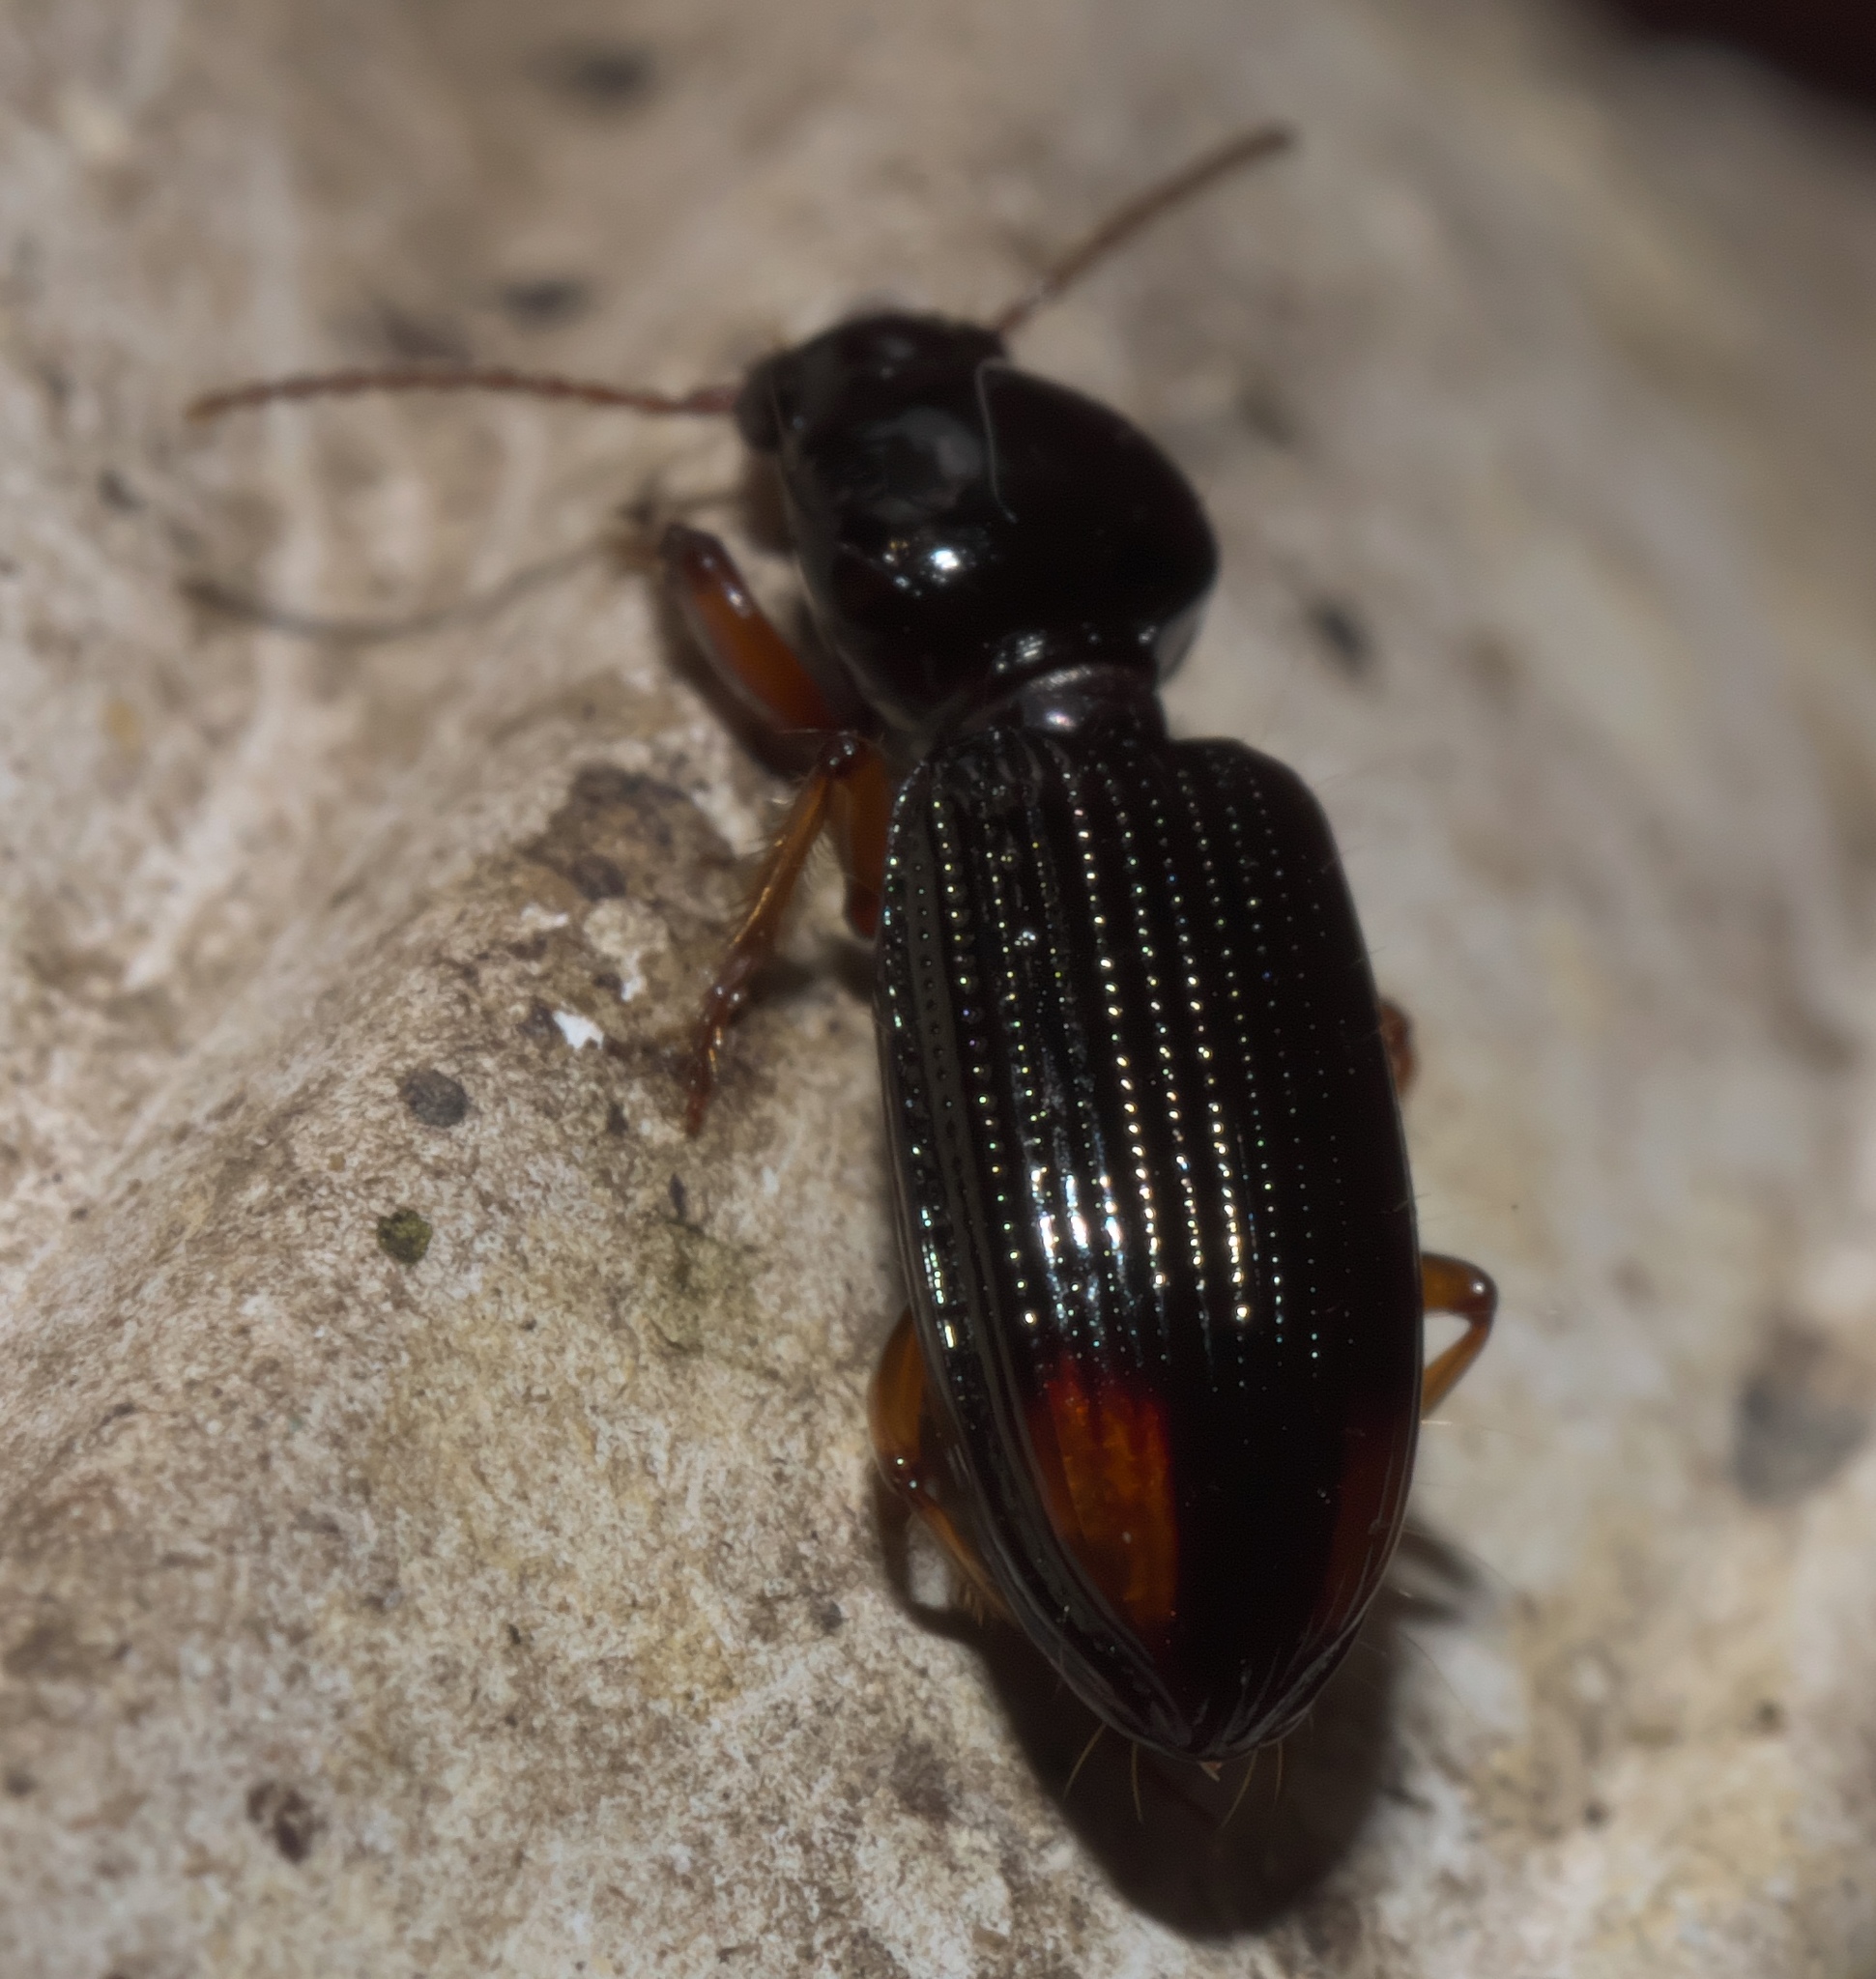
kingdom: Animalia
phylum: Arthropoda
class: Insecta
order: Coleoptera
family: Carabidae
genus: Aspidoglossa
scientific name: Aspidoglossa subangulata
